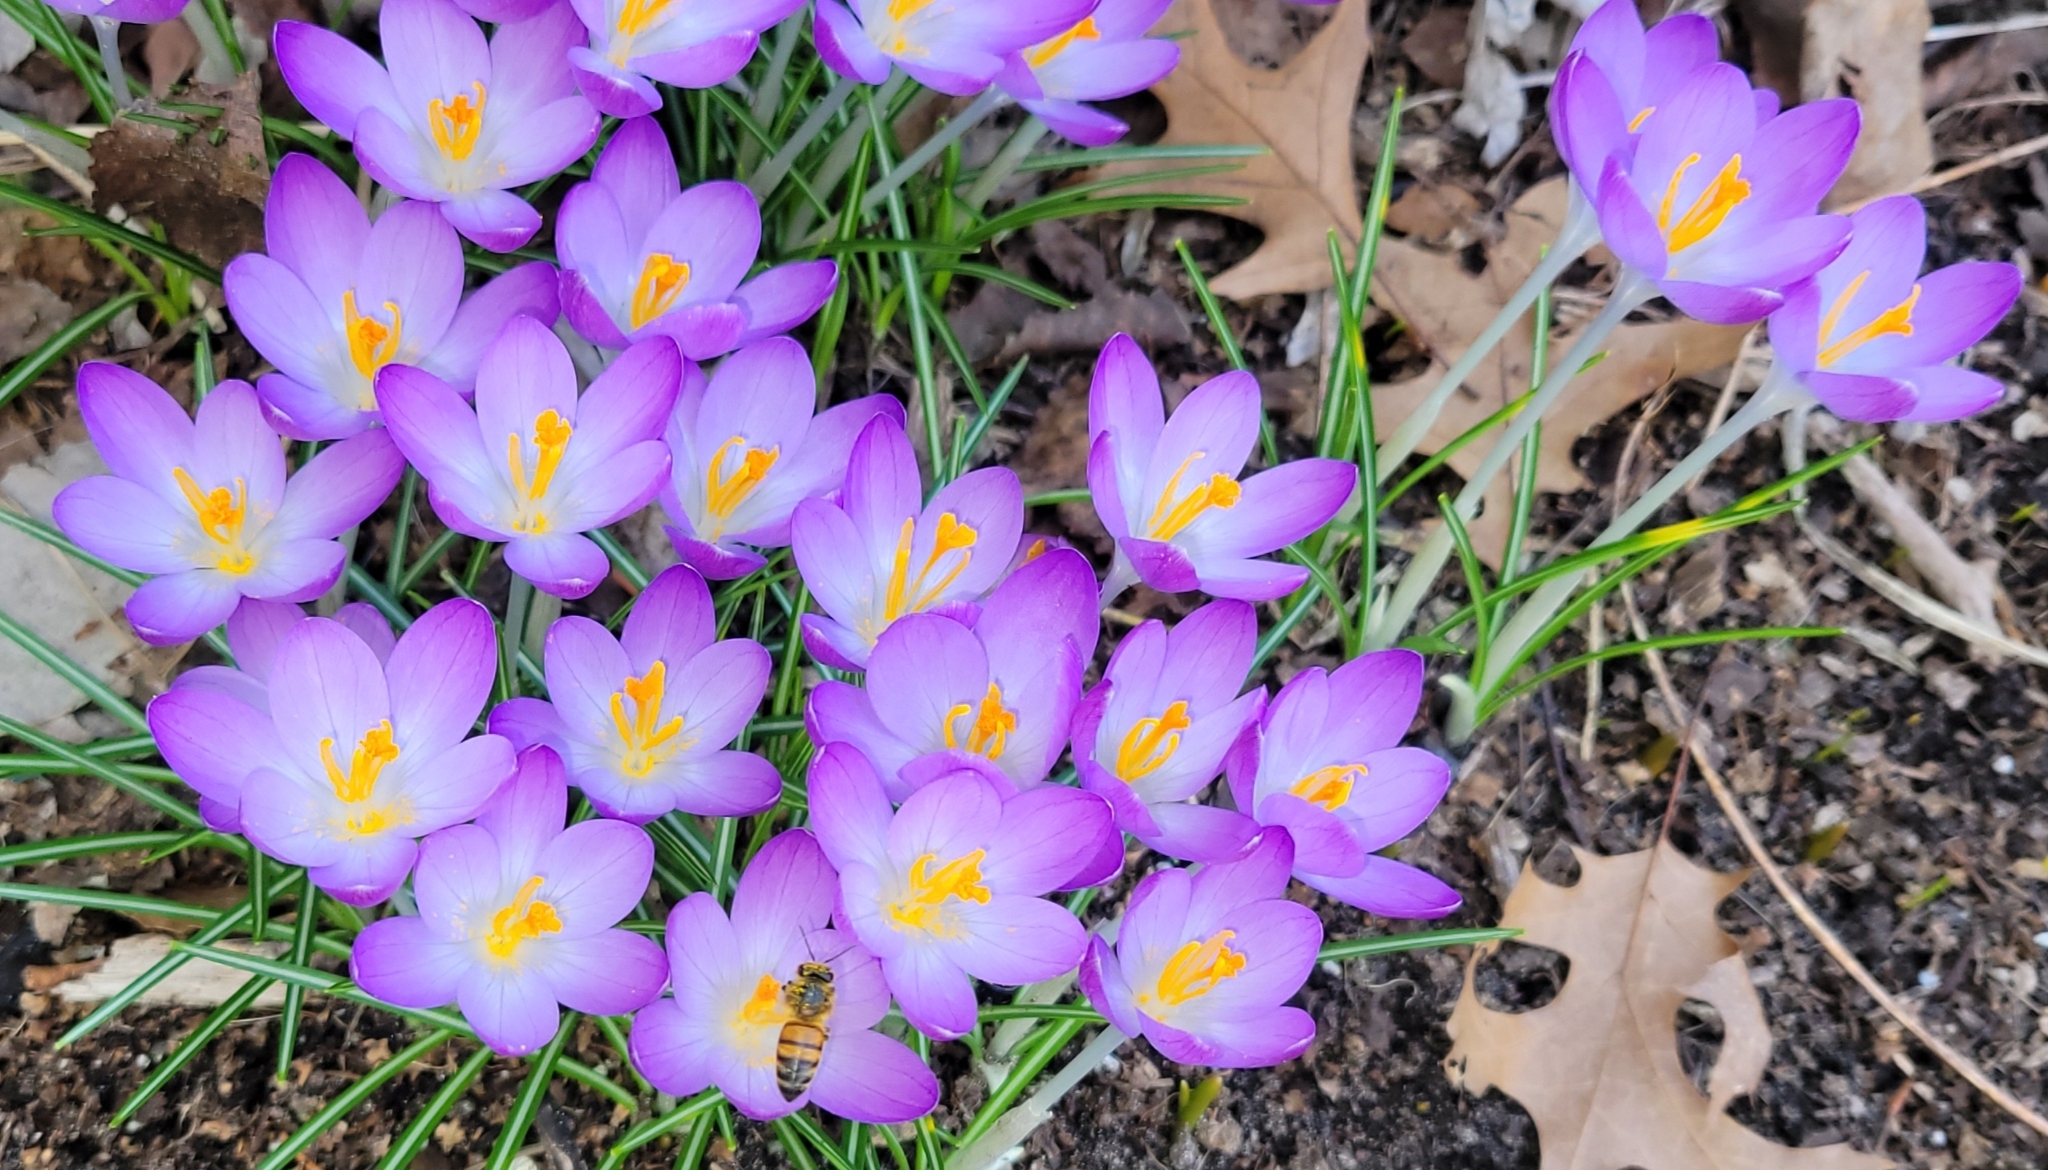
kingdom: Plantae
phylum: Tracheophyta
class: Liliopsida
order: Asparagales
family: Iridaceae
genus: Crocus
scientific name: Crocus tommasinianus
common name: Early crocus
